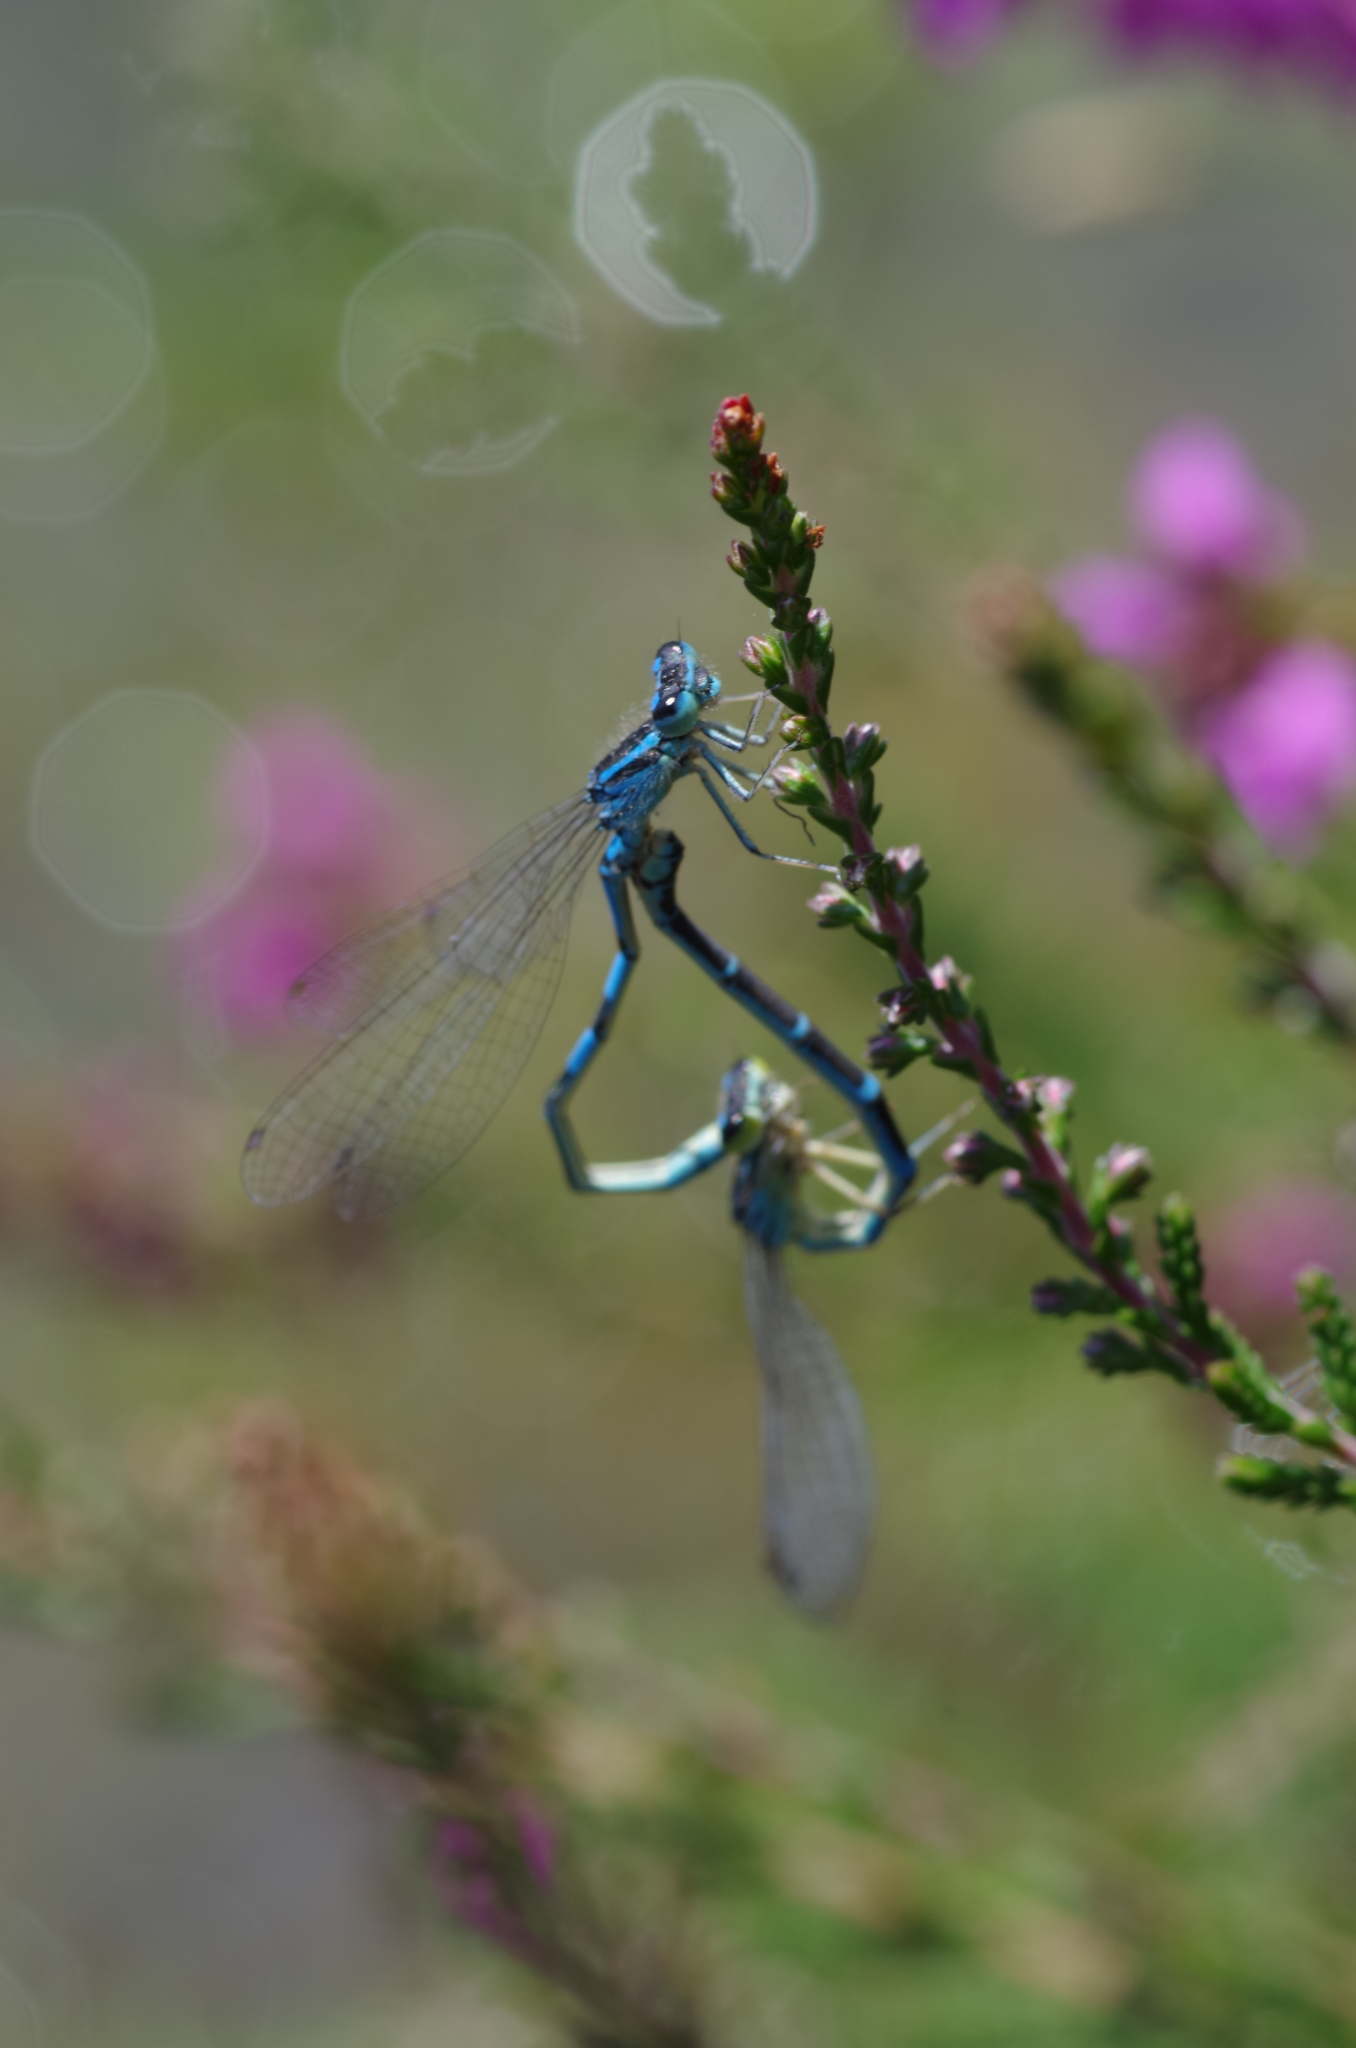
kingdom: Animalia
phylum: Arthropoda
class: Insecta
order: Odonata
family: Coenagrionidae
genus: Coenagrion
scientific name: Coenagrion scitulum
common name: Dainty bluet
